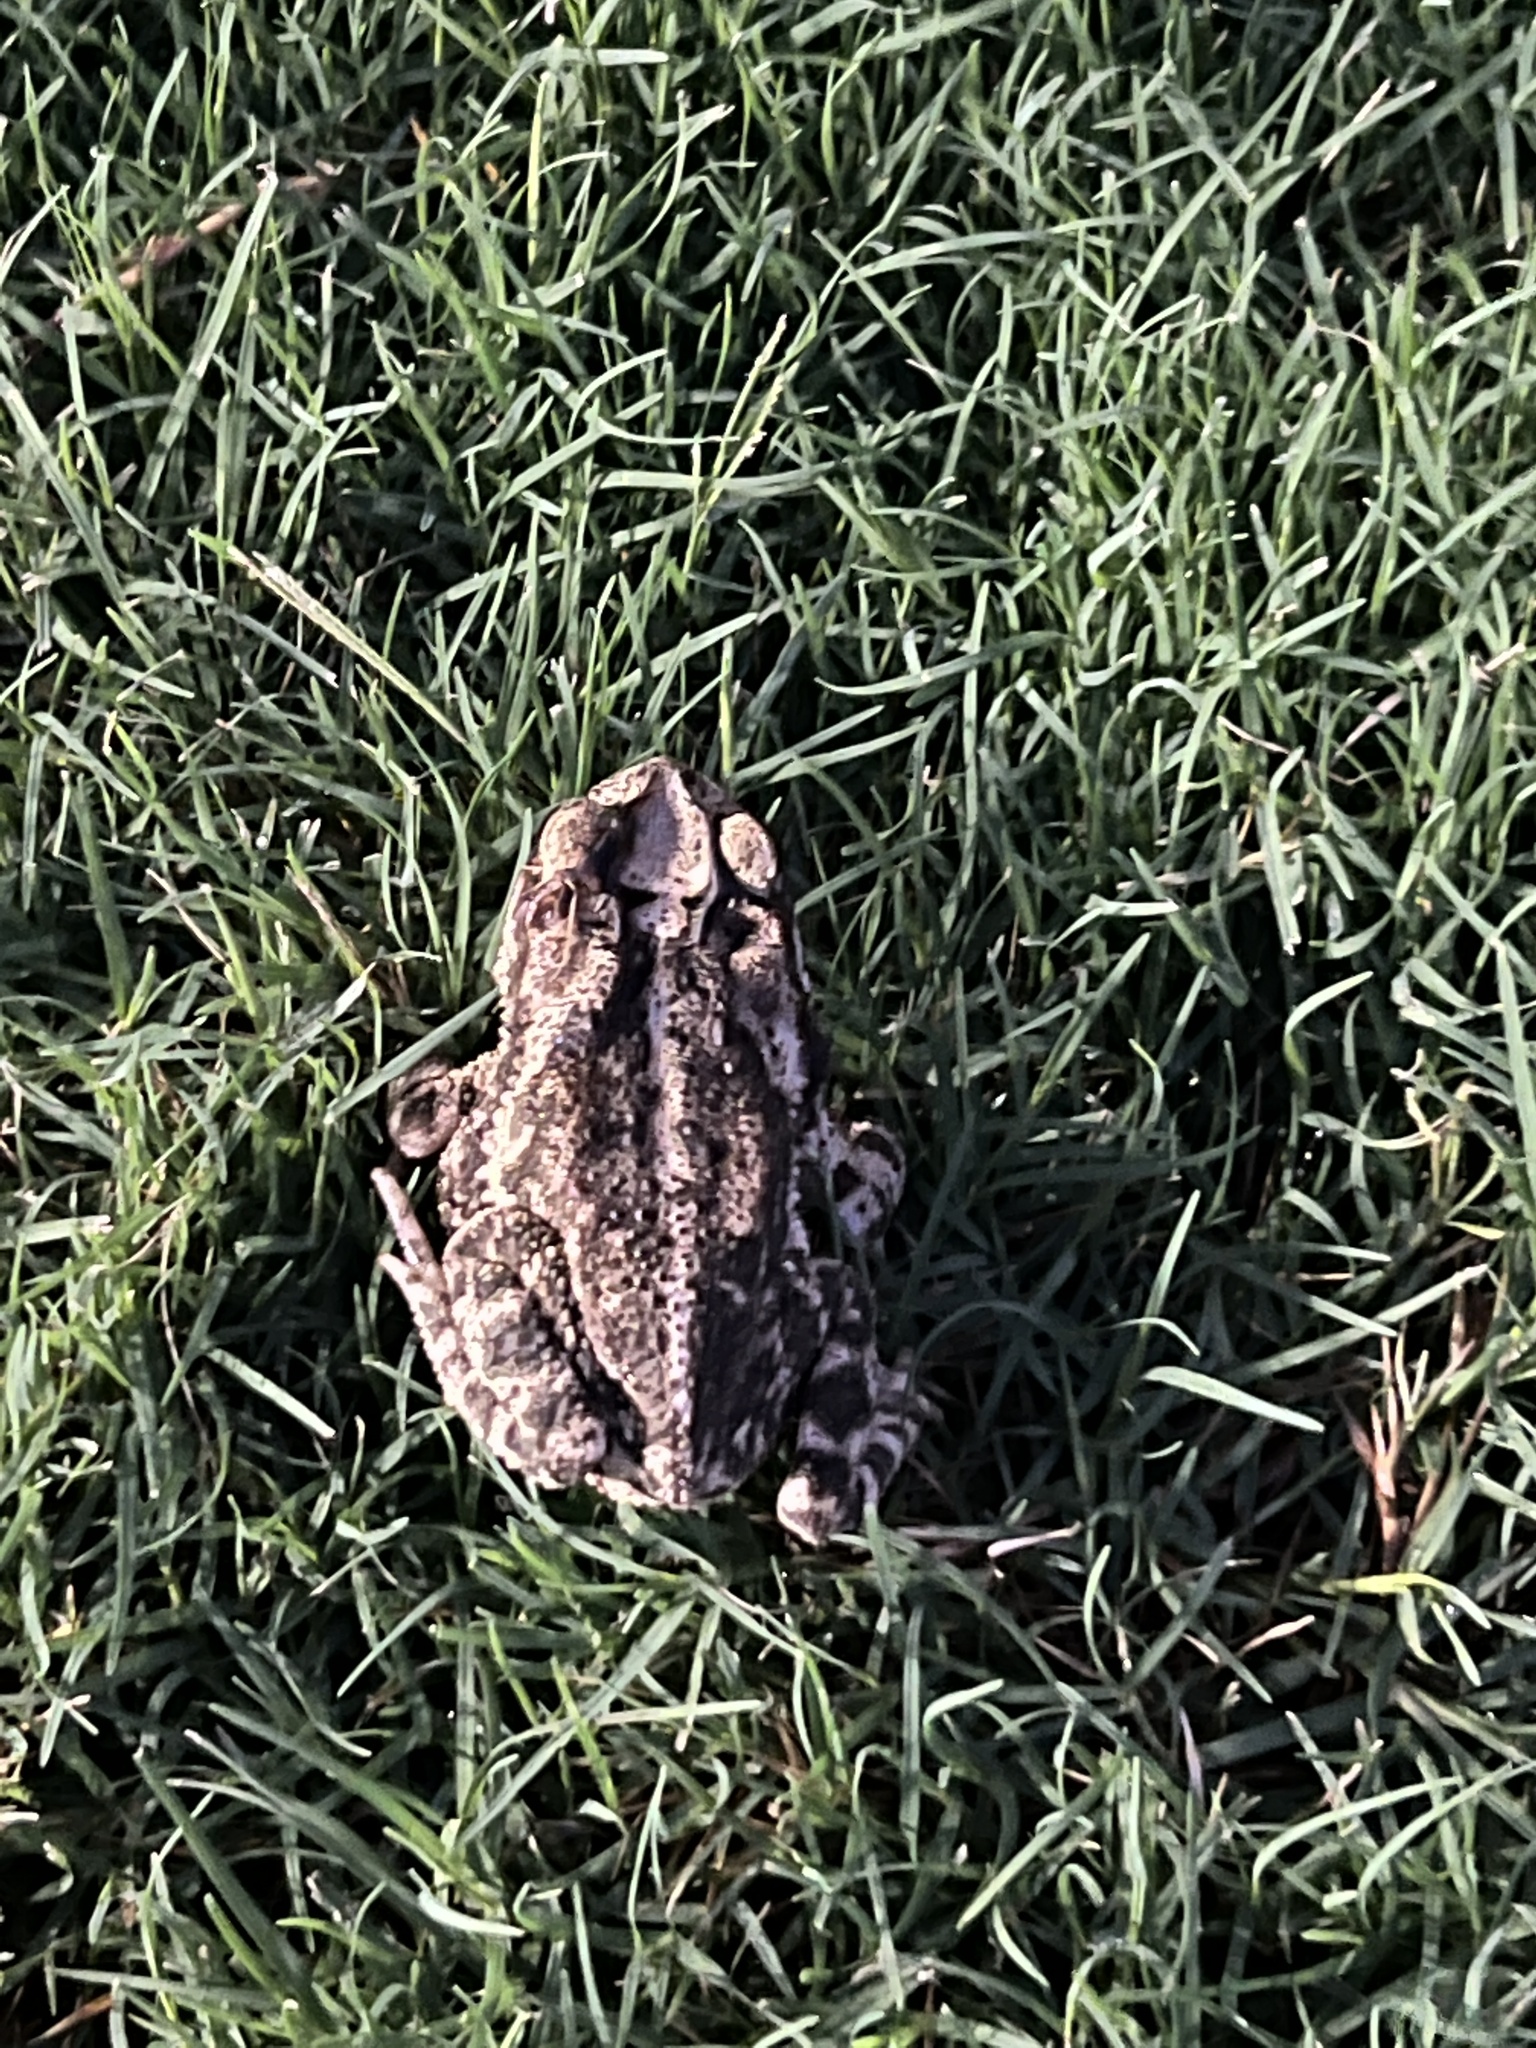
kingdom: Animalia
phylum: Chordata
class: Amphibia
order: Anura
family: Bufonidae
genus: Incilius
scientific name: Incilius nebulifer
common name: Gulf coast toad
